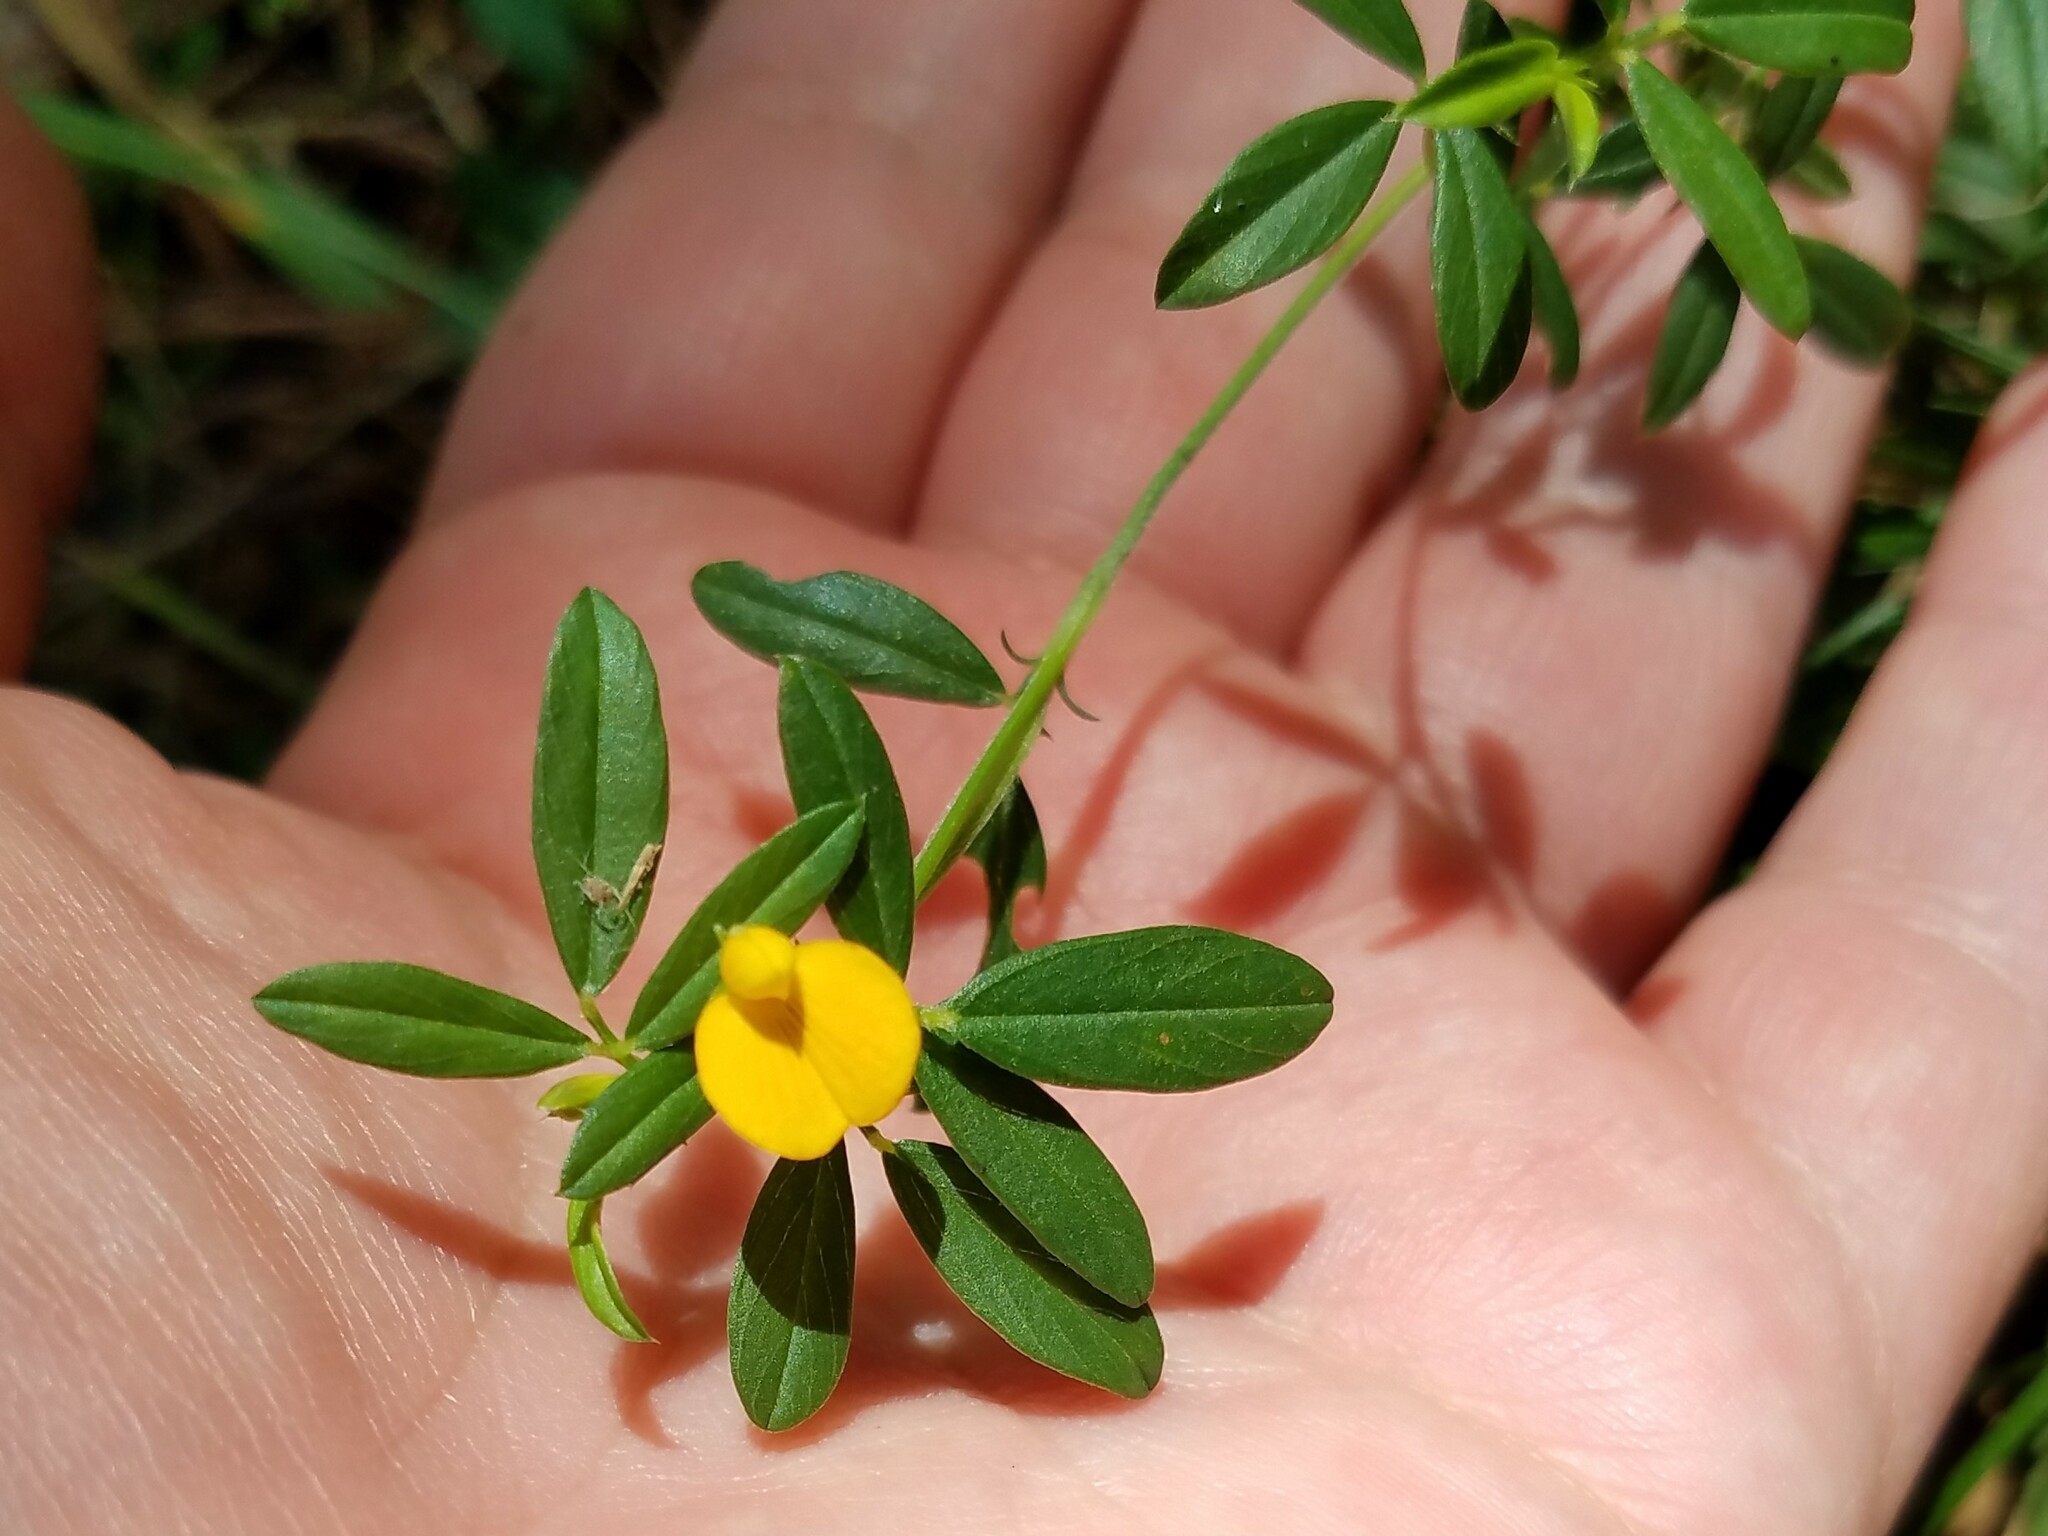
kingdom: Plantae
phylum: Tracheophyta
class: Magnoliopsida
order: Fabales
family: Fabaceae
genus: Stylosanthes
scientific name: Stylosanthes biflora
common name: Two-flower pencil-flower
